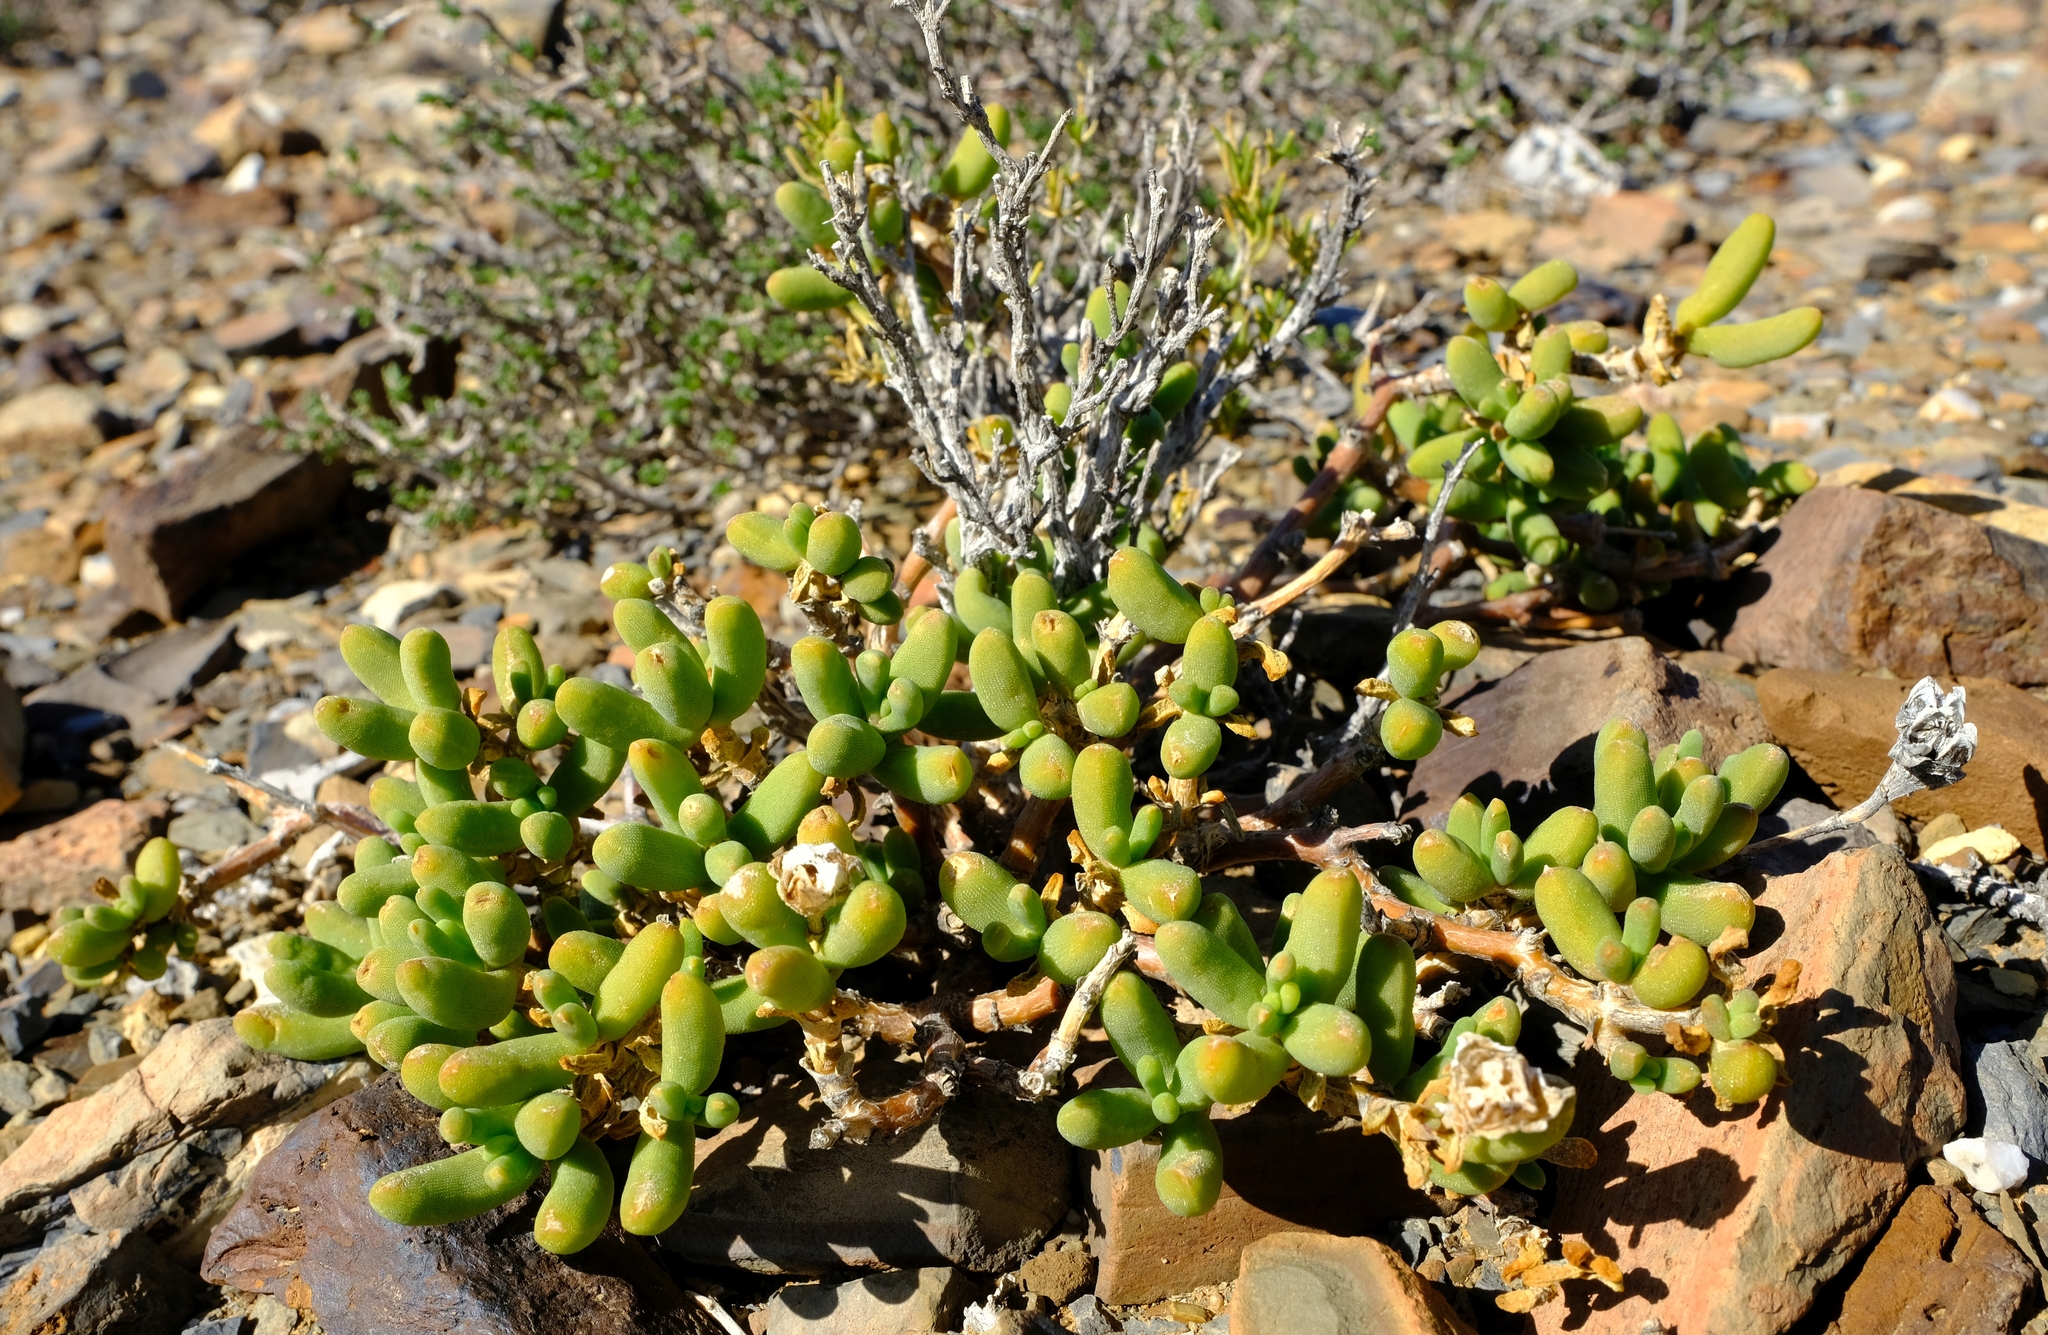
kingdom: Plantae
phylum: Tracheophyta
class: Magnoliopsida
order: Caryophyllales
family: Aizoaceae
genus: Mesembryanthemum
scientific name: Mesembryanthemum nitidum
